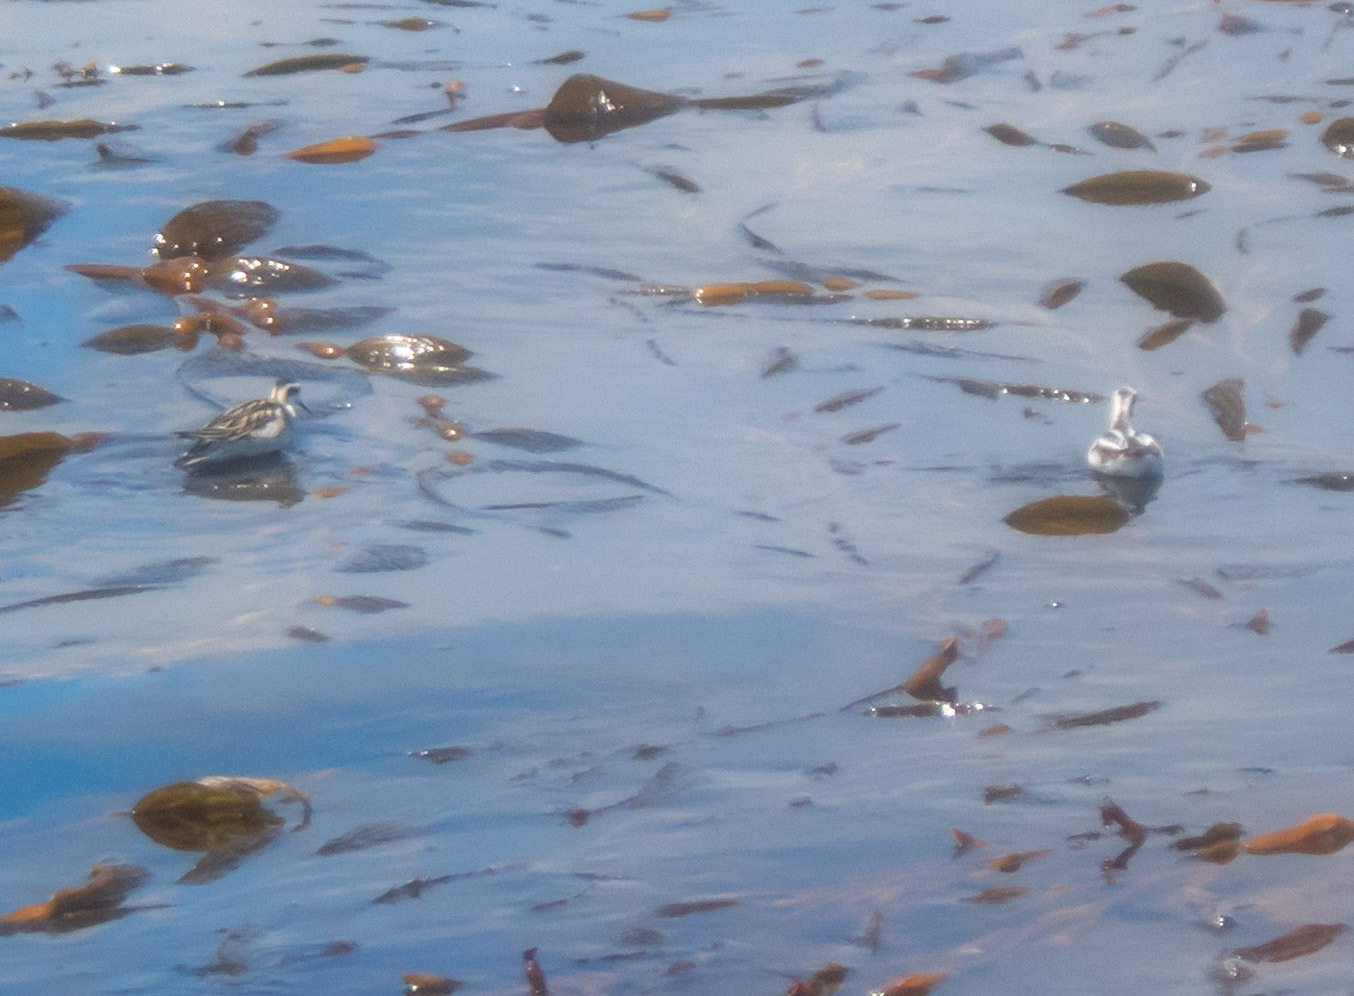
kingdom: Animalia
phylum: Chordata
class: Aves
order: Charadriiformes
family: Scolopacidae
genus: Phalaropus
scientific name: Phalaropus lobatus
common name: Red-necked phalarope
